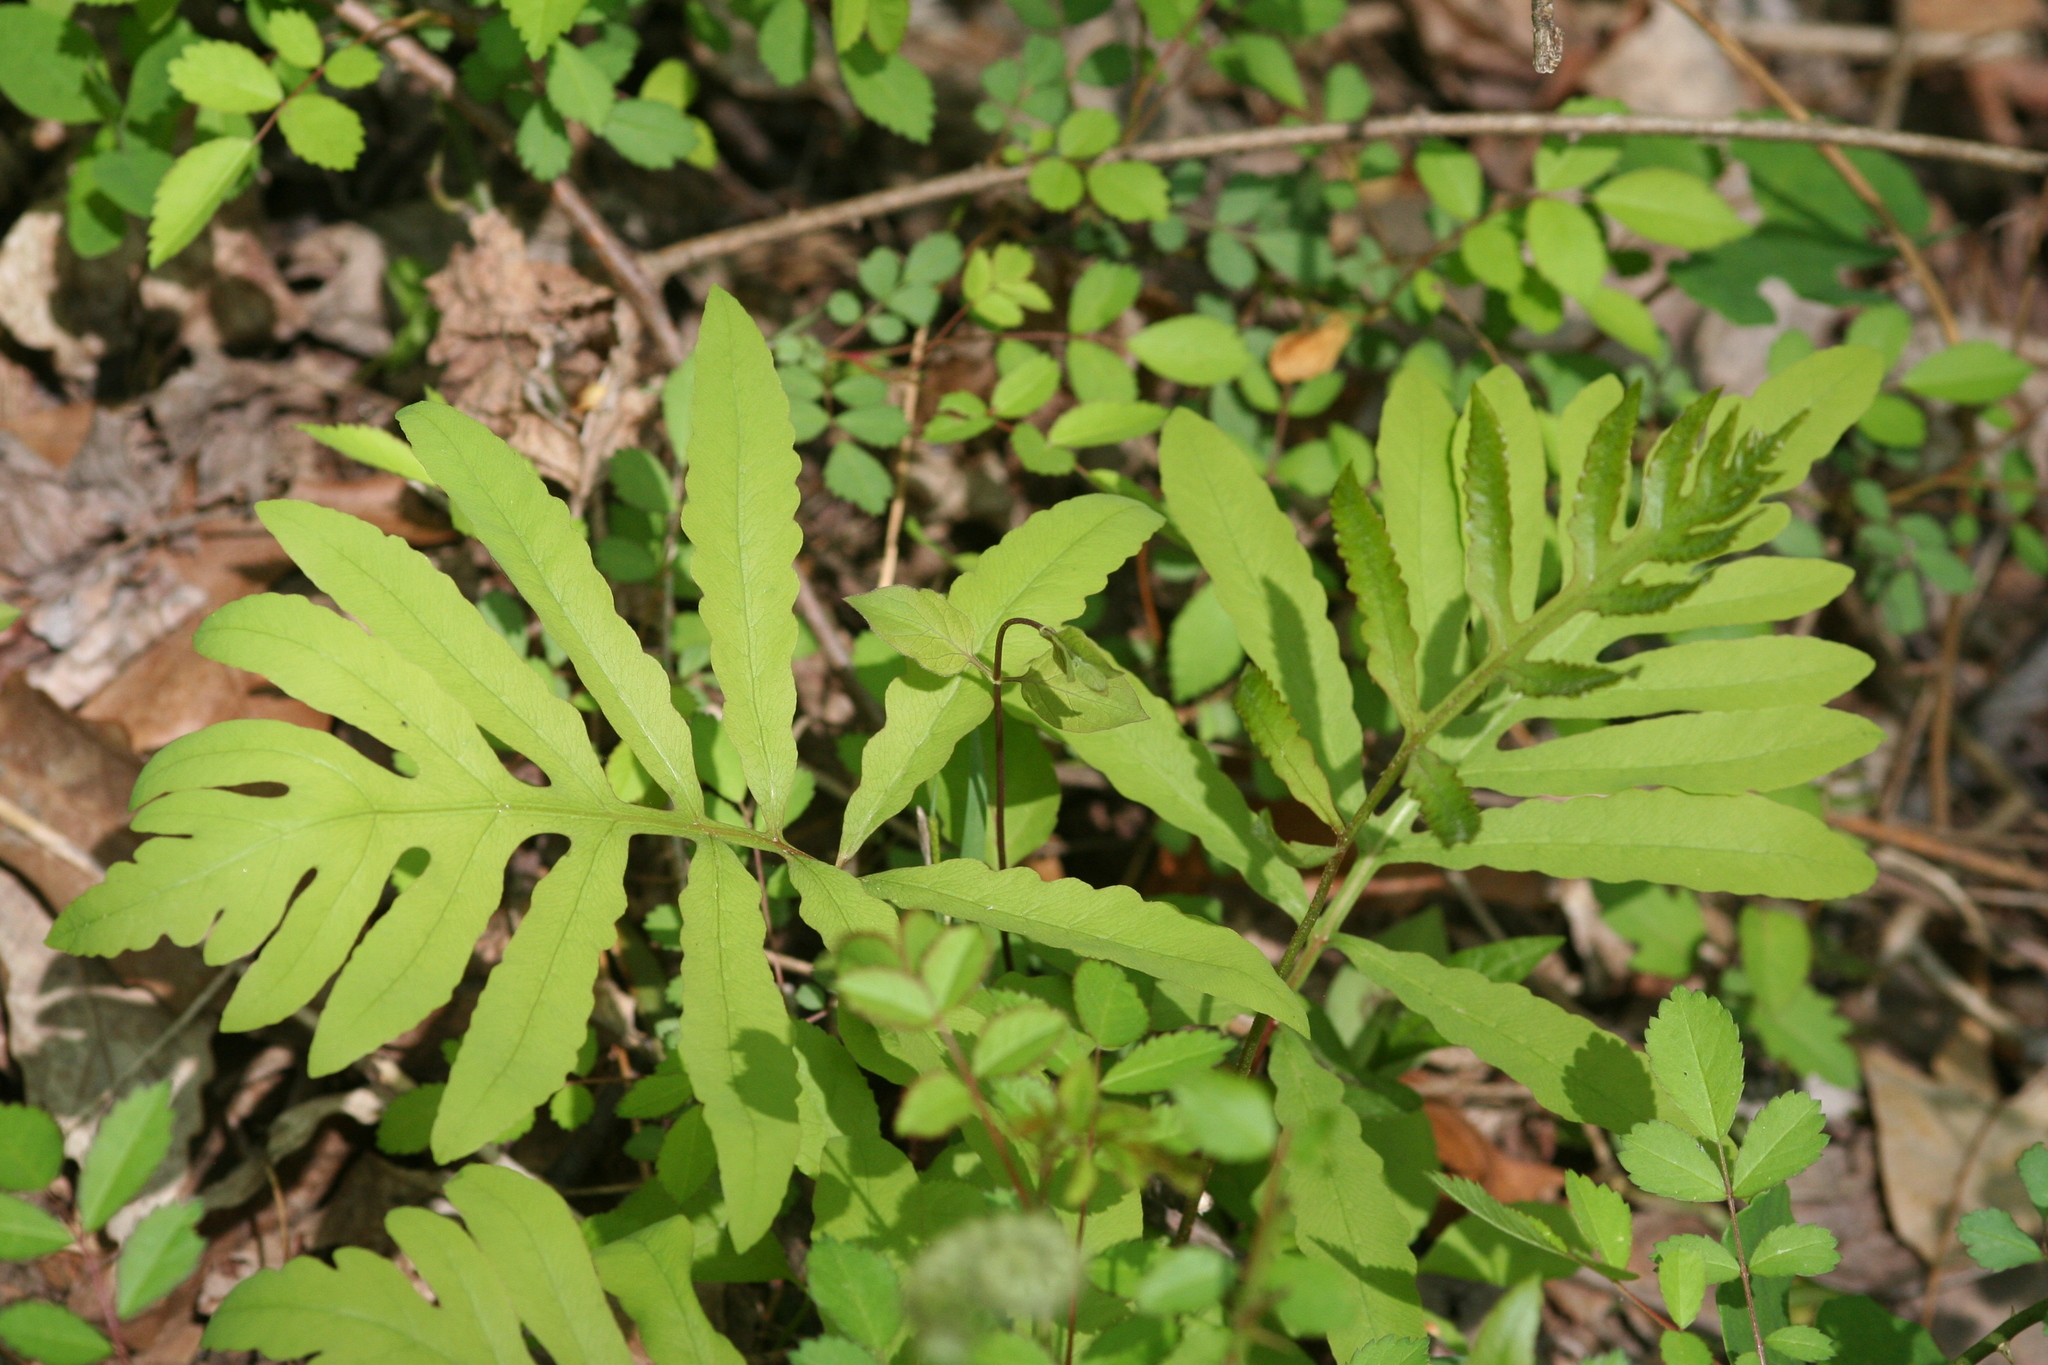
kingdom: Plantae
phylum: Tracheophyta
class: Polypodiopsida
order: Polypodiales
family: Onocleaceae
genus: Onoclea
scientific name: Onoclea sensibilis
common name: Sensitive fern
